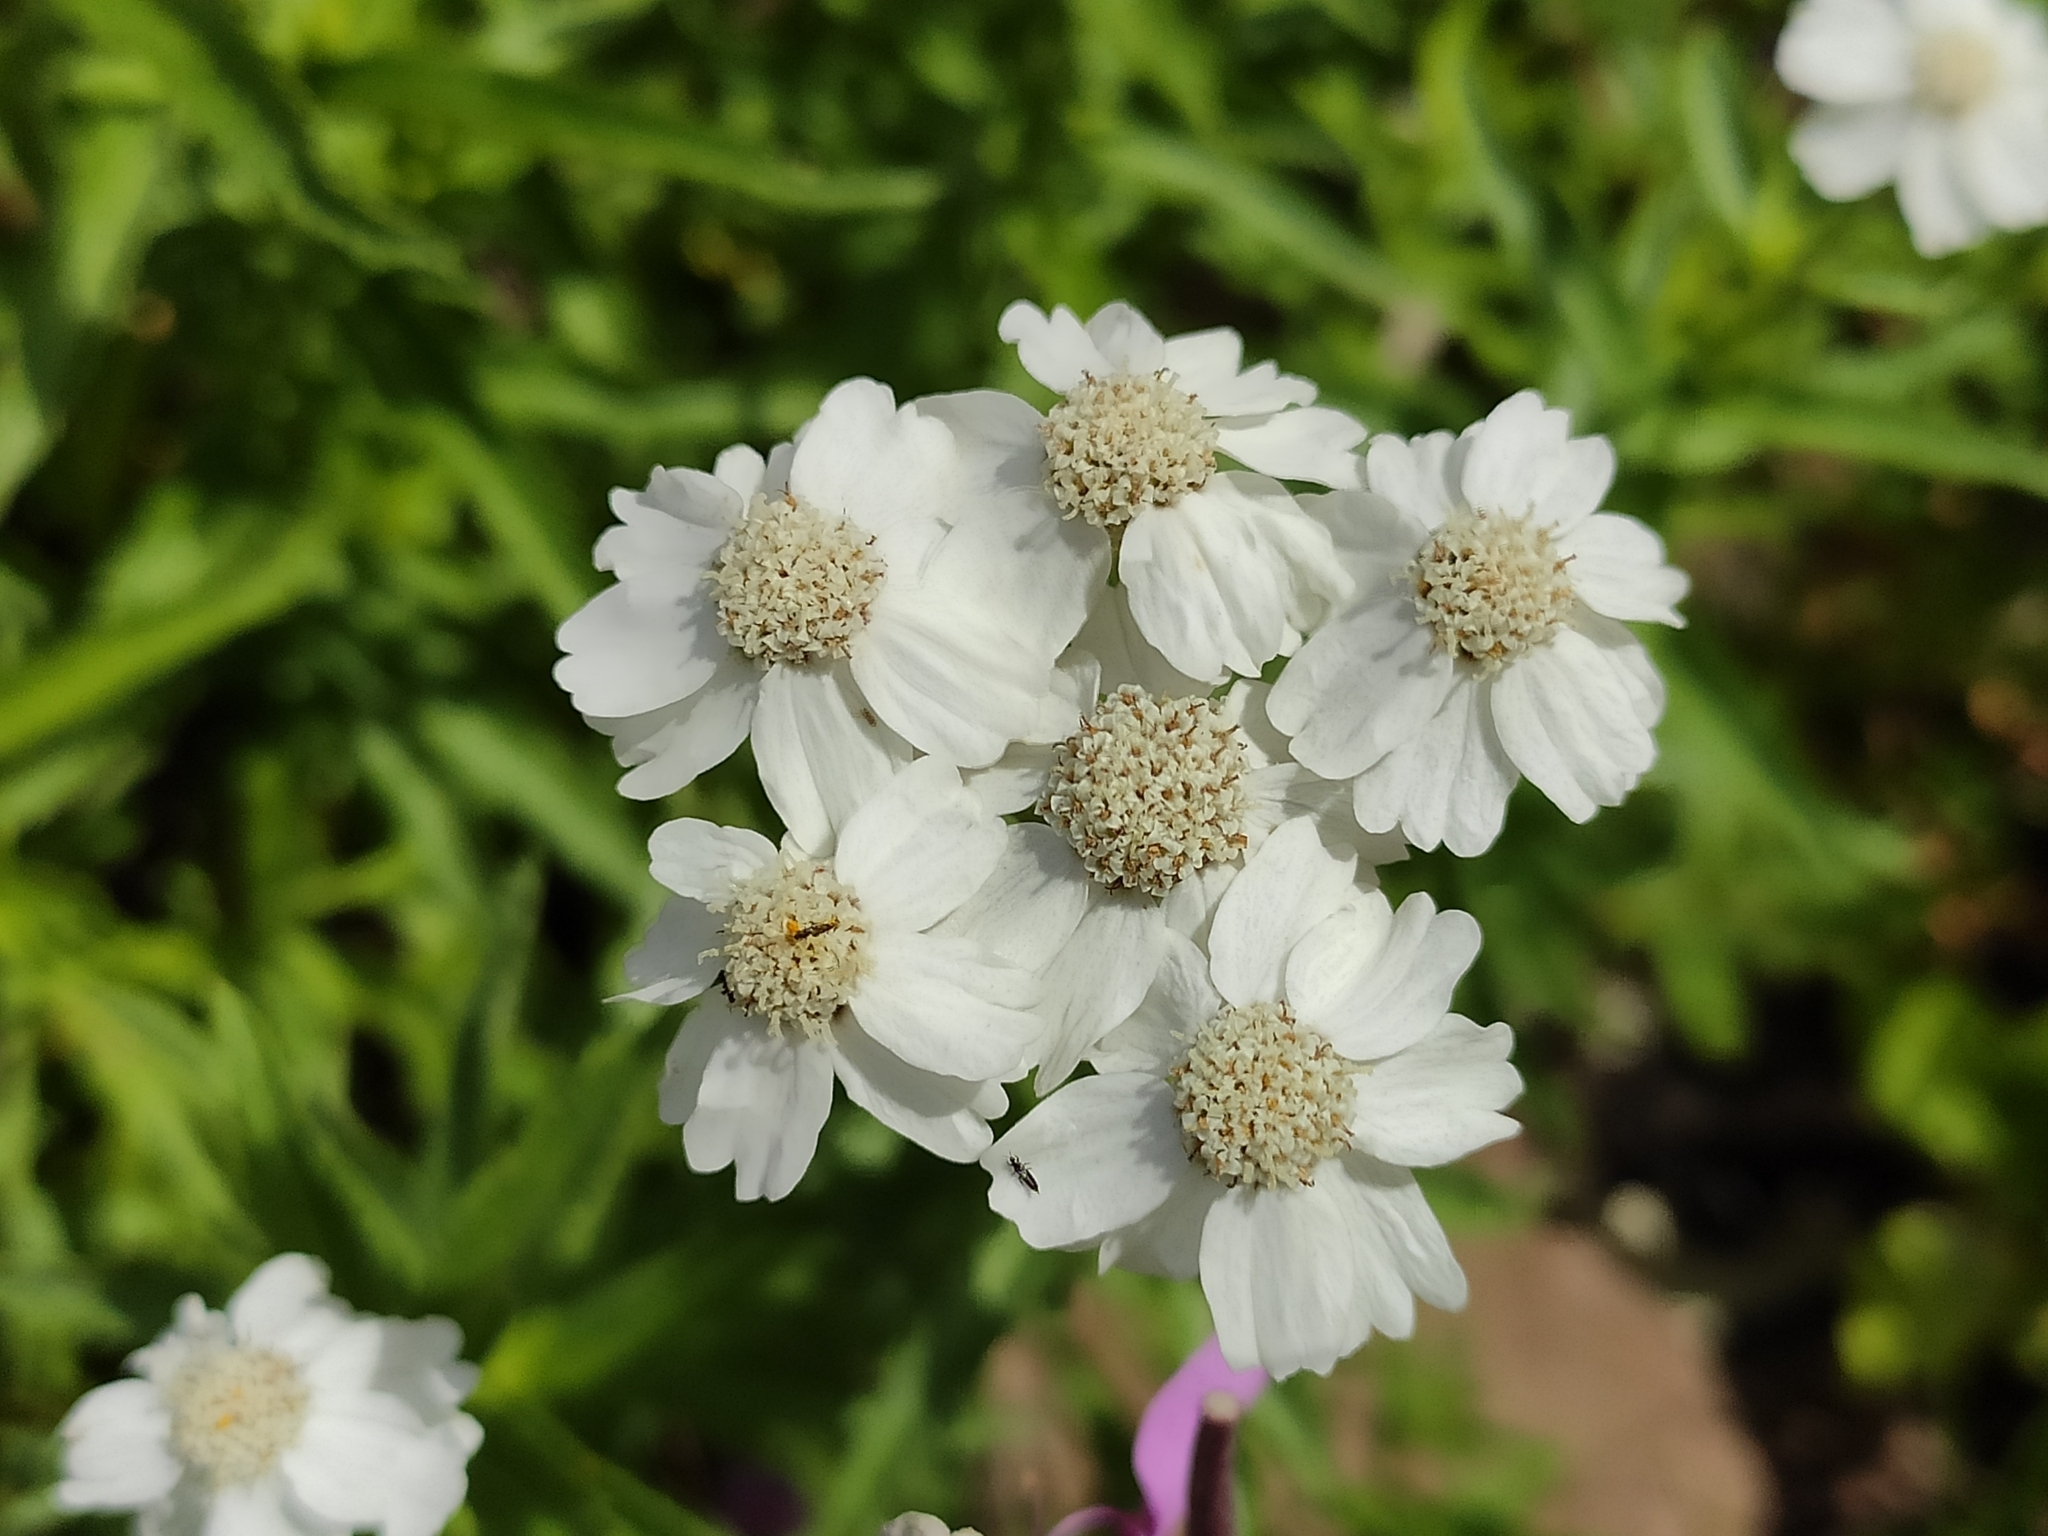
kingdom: Plantae
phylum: Tracheophyta
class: Magnoliopsida
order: Asterales
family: Asteraceae
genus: Achillea
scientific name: Achillea biserrata
